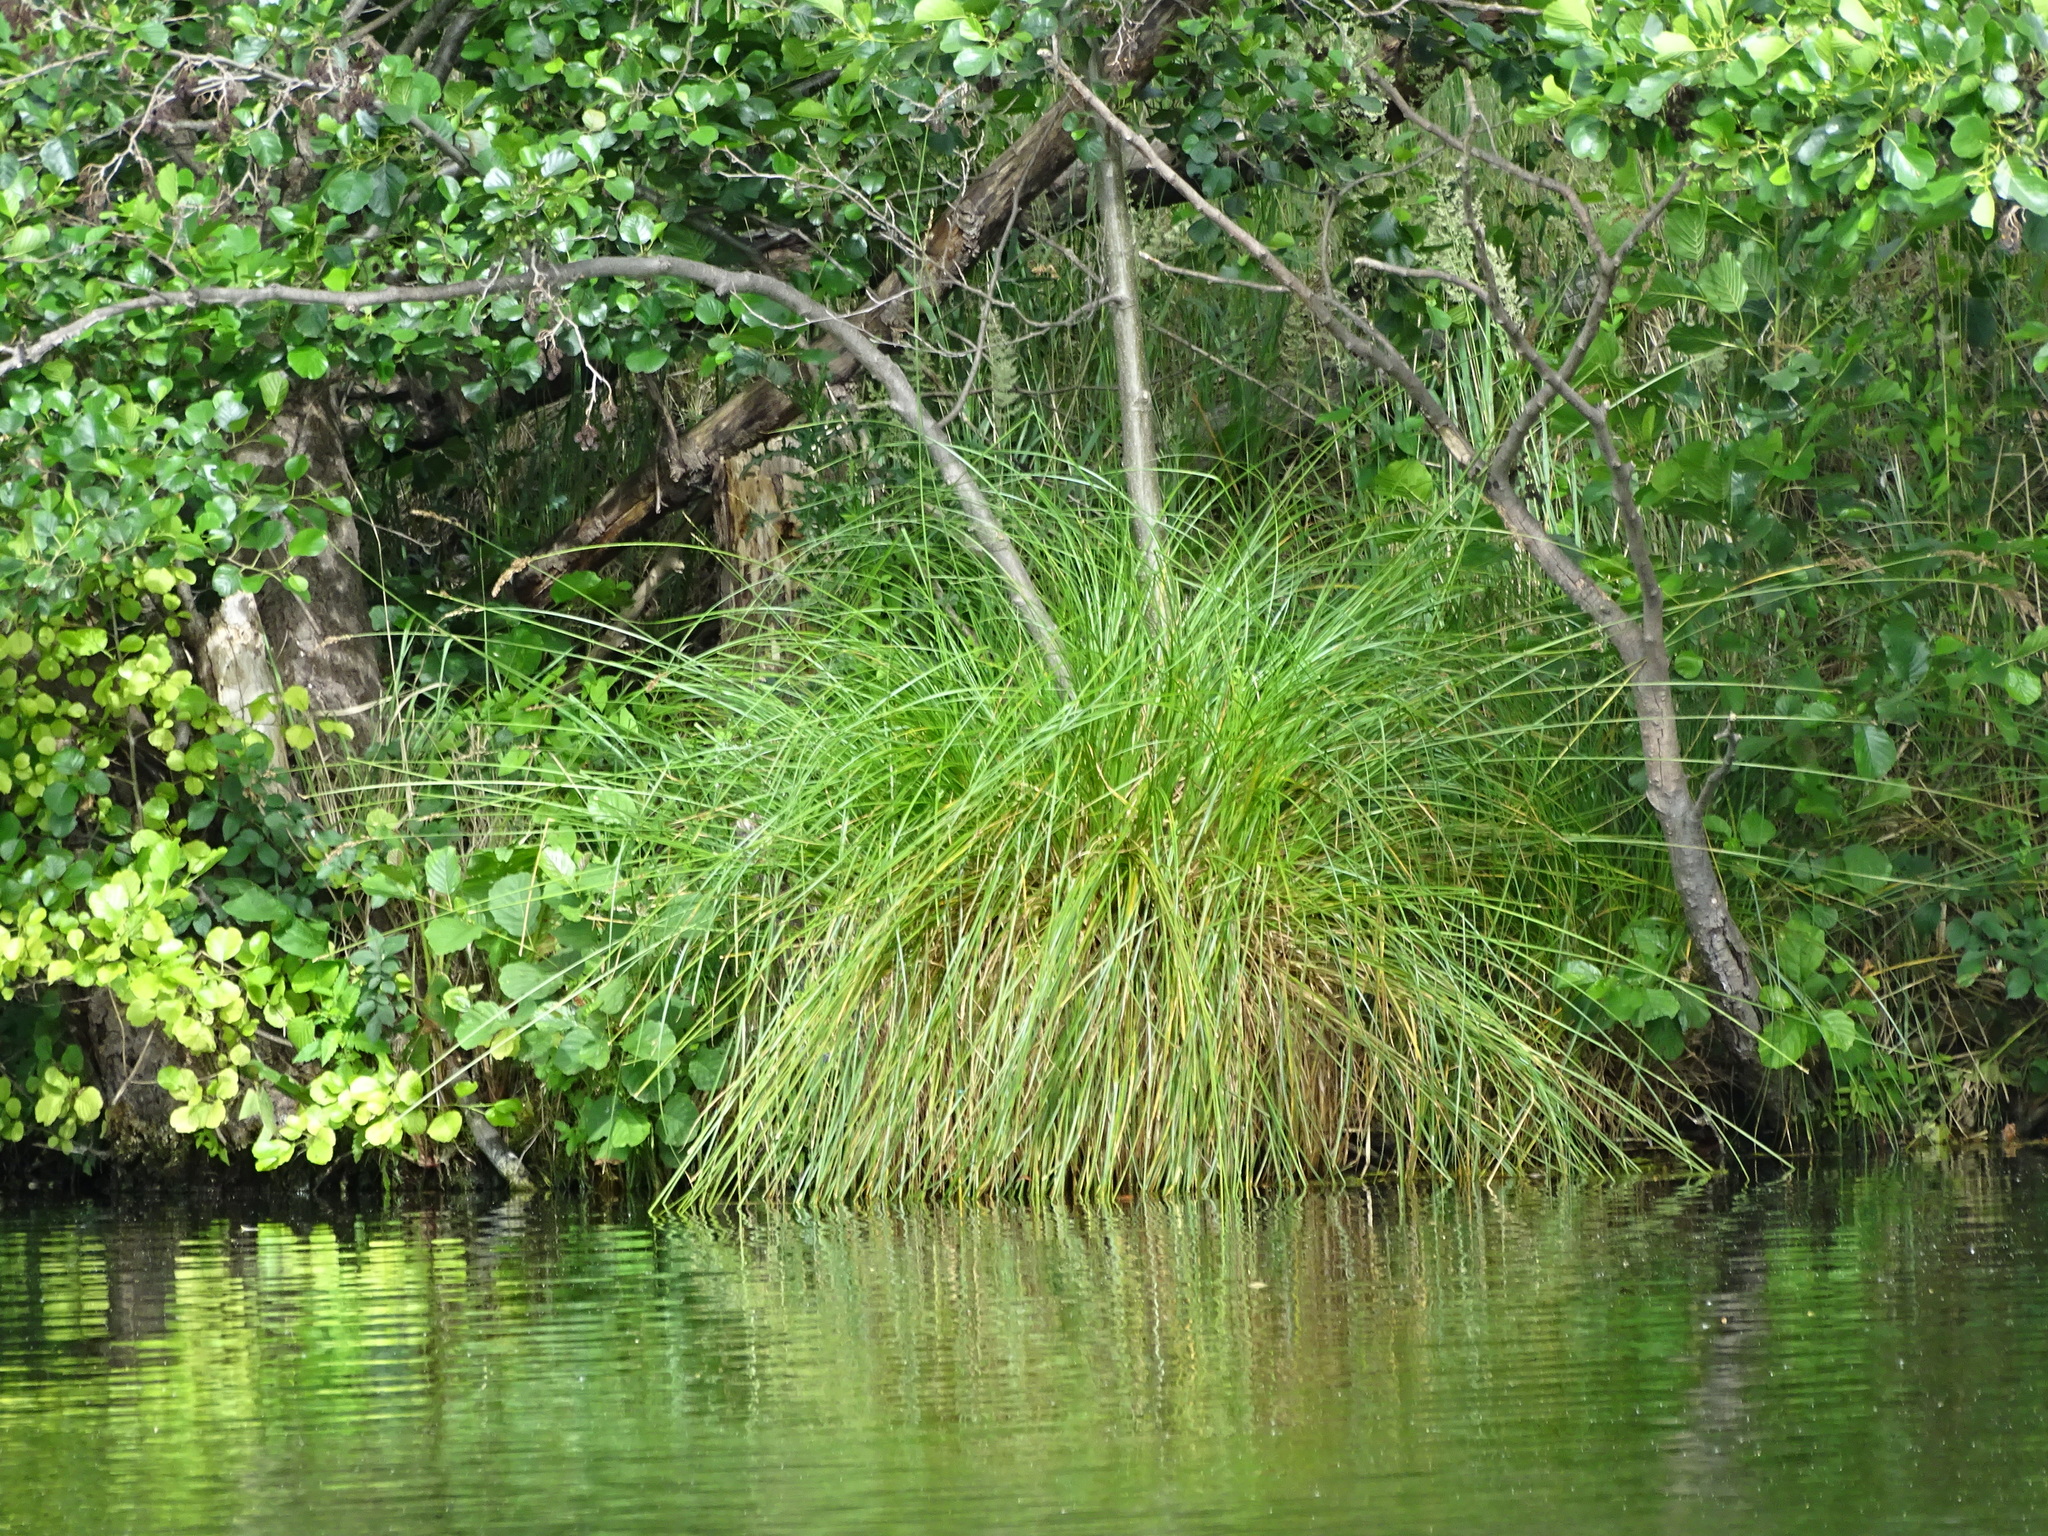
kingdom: Plantae
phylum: Tracheophyta
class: Liliopsida
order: Poales
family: Cyperaceae
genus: Carex
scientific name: Carex paniculata
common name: Greater tussock-sedge
